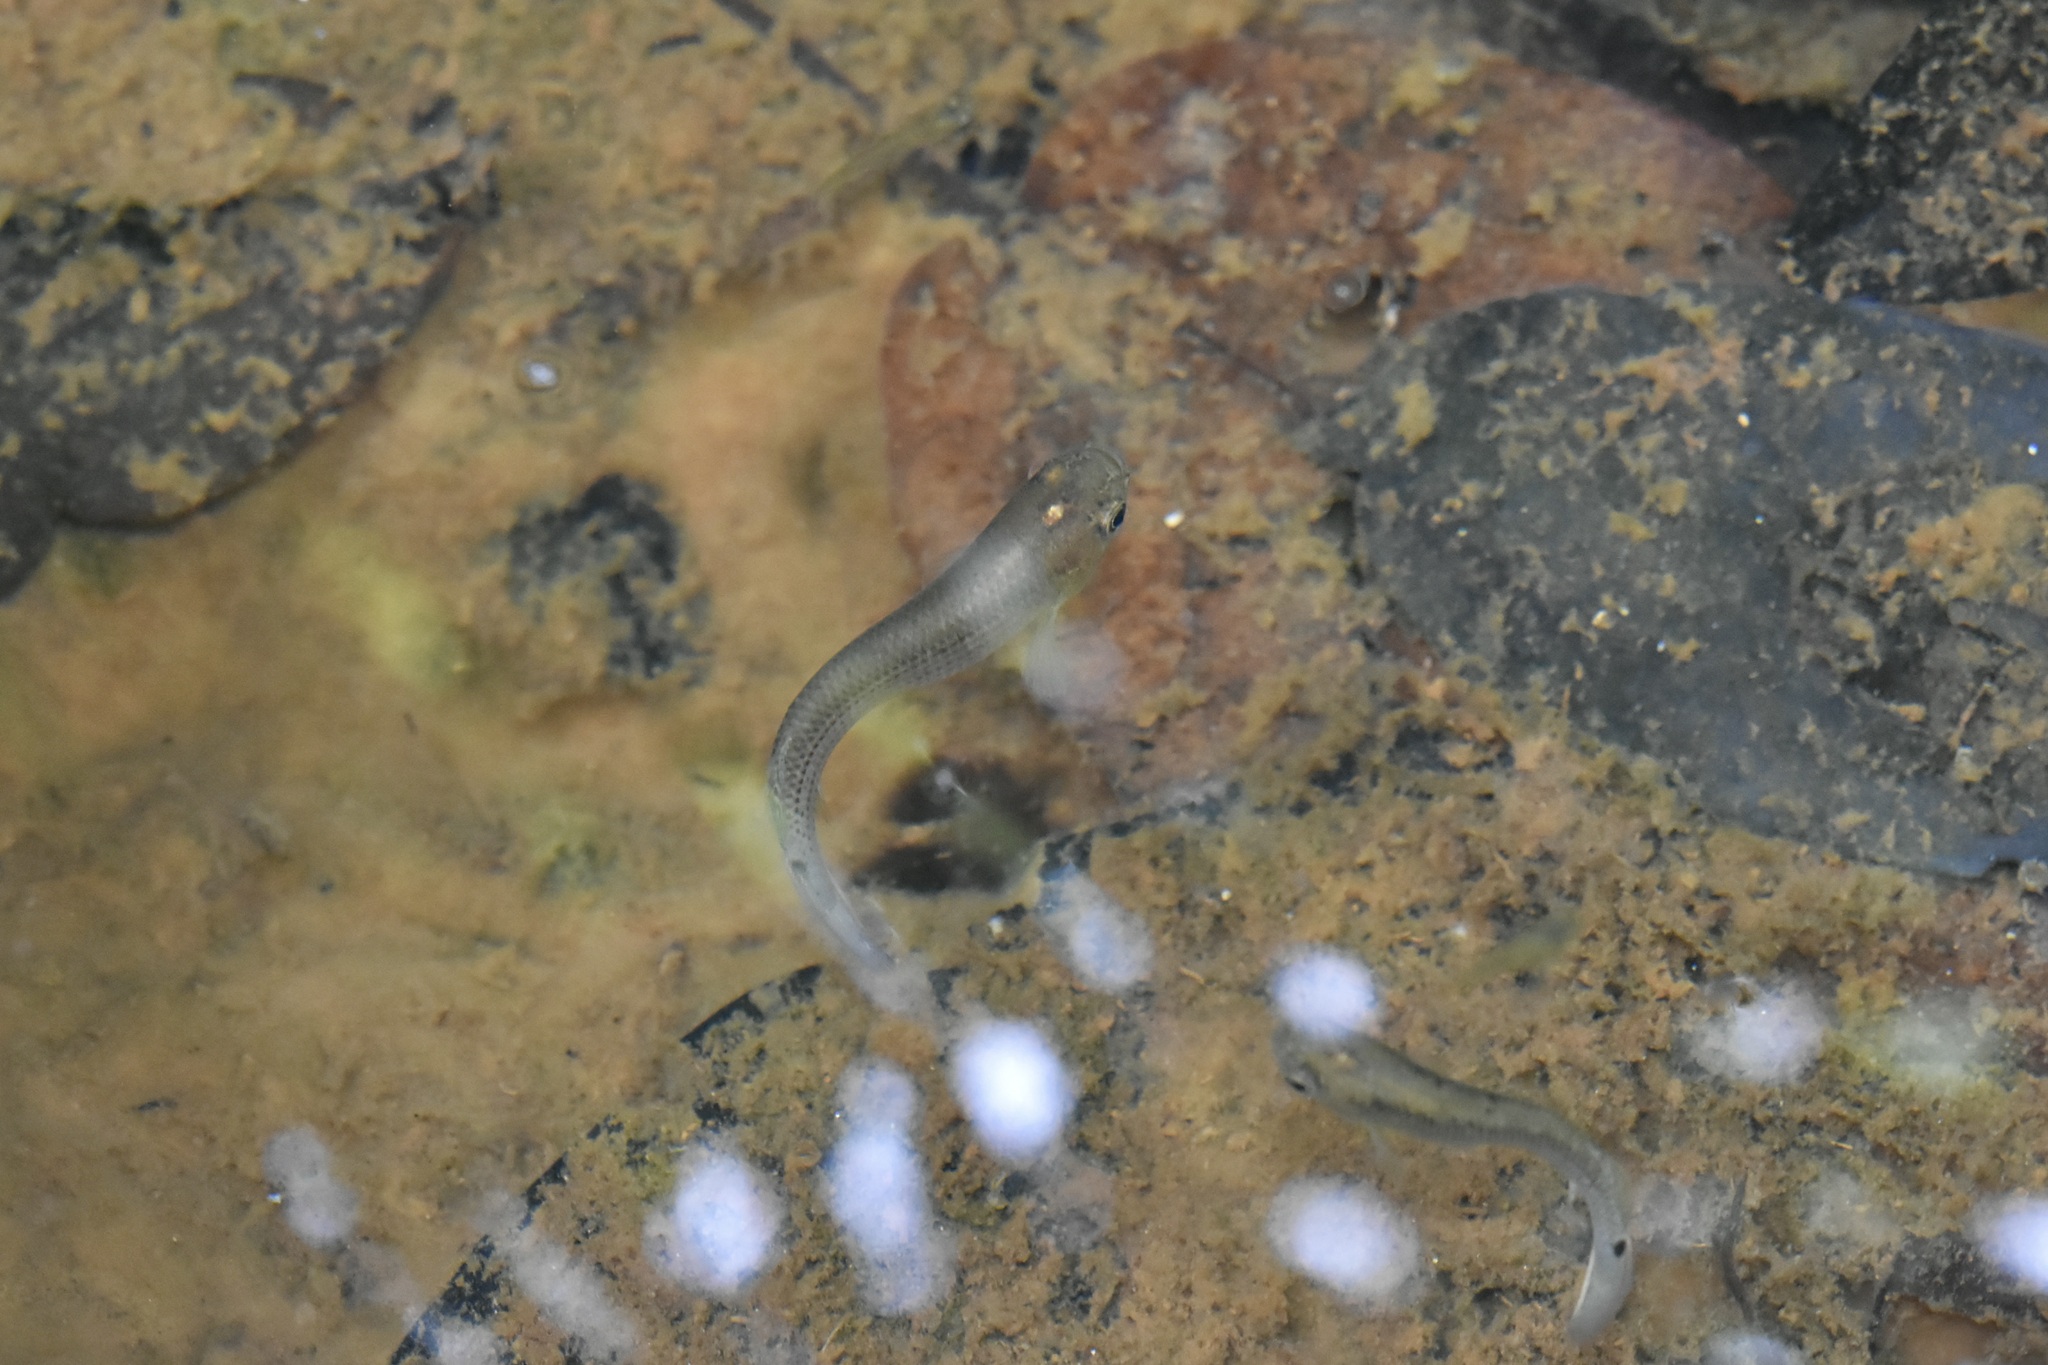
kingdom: Animalia
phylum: Chordata
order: Cyprinodontiformes
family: Rivulidae
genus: Anablepsoides
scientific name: Anablepsoides hartii
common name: Giant rivulus
